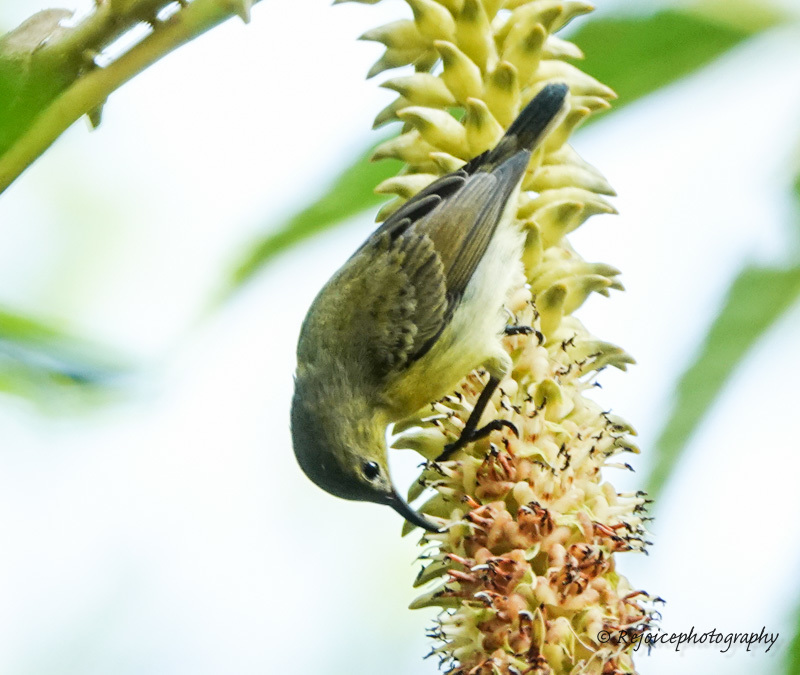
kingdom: Animalia
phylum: Chordata
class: Aves
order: Passeriformes
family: Nectariniidae
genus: Leptocoma
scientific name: Leptocoma brasiliana
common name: Van hasselt's sunbird
